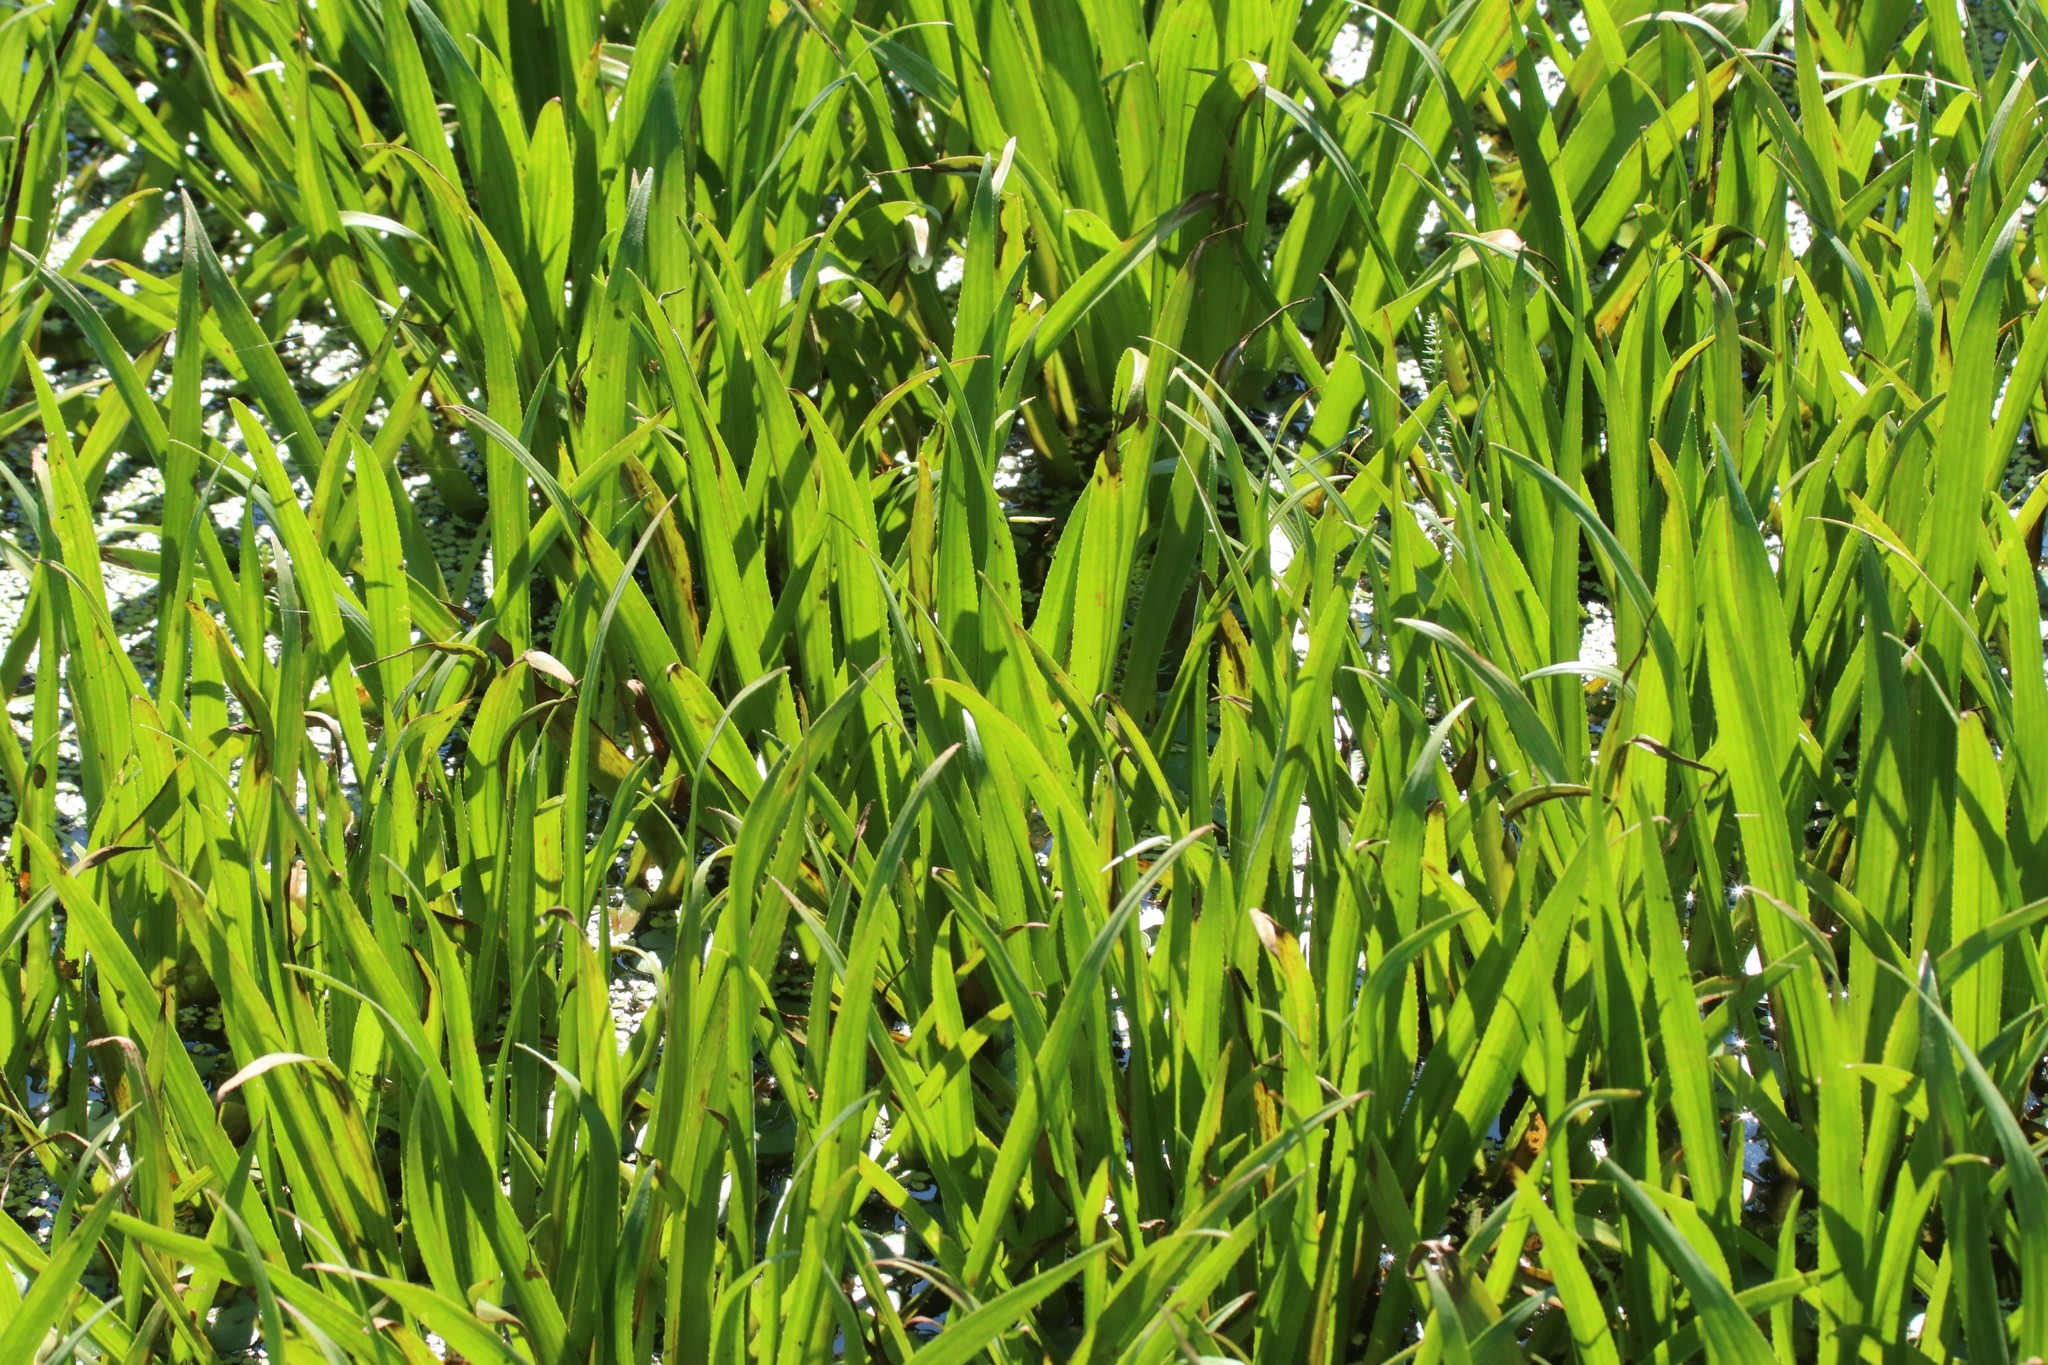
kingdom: Plantae
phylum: Tracheophyta
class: Liliopsida
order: Alismatales
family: Hydrocharitaceae
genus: Stratiotes
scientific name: Stratiotes aloides
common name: Water-soldier
